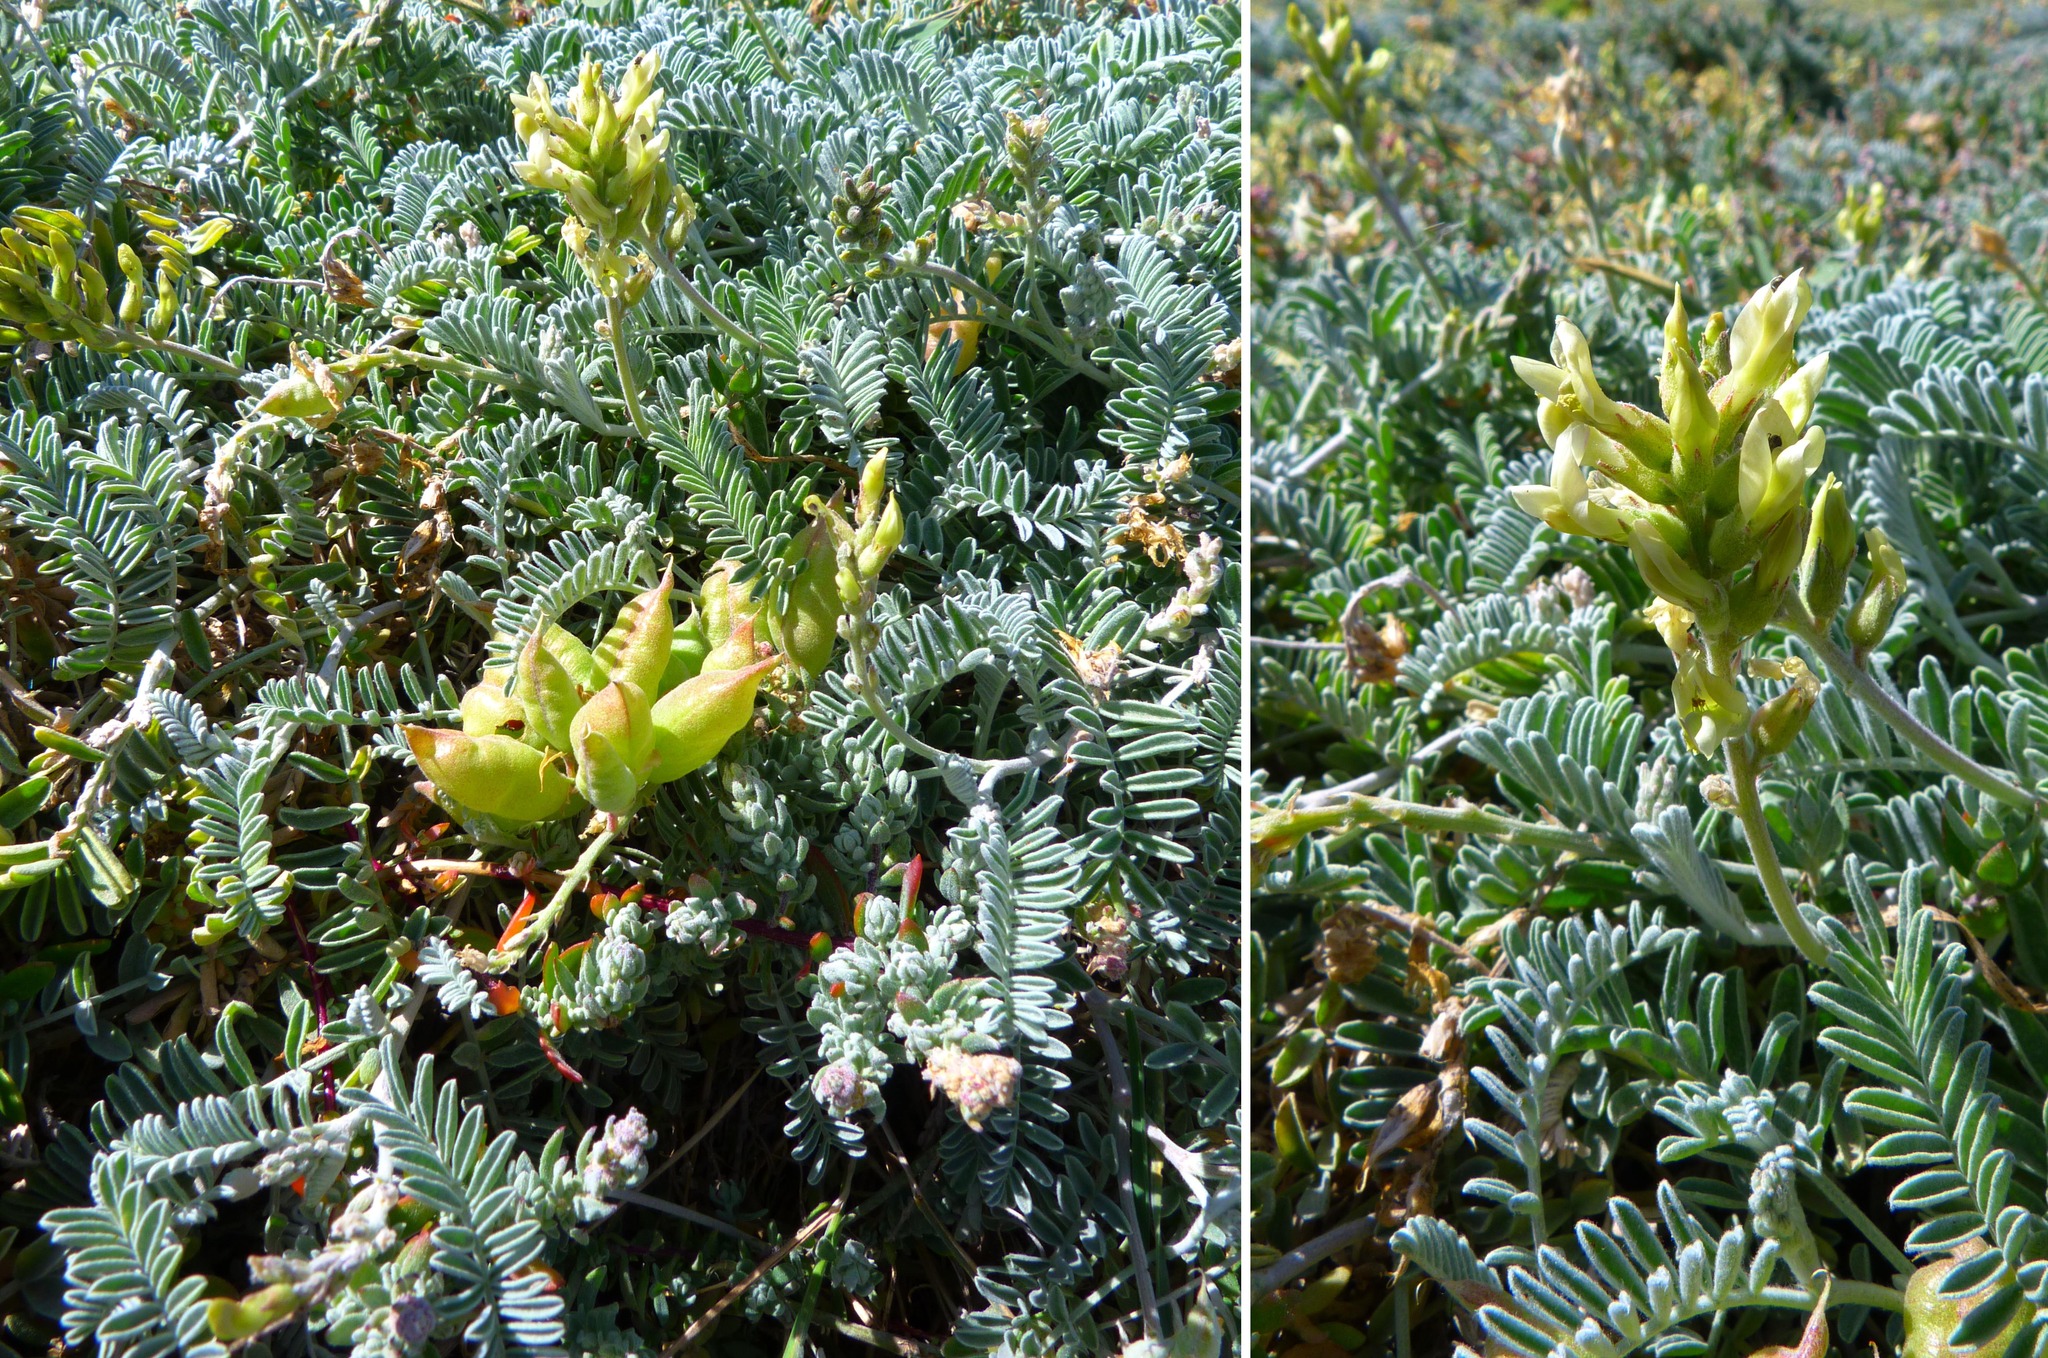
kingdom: Plantae
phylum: Tracheophyta
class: Magnoliopsida
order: Fabales
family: Fabaceae
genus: Astragalus
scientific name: Astragalus miguelensis
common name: San miguel milk-vetch
